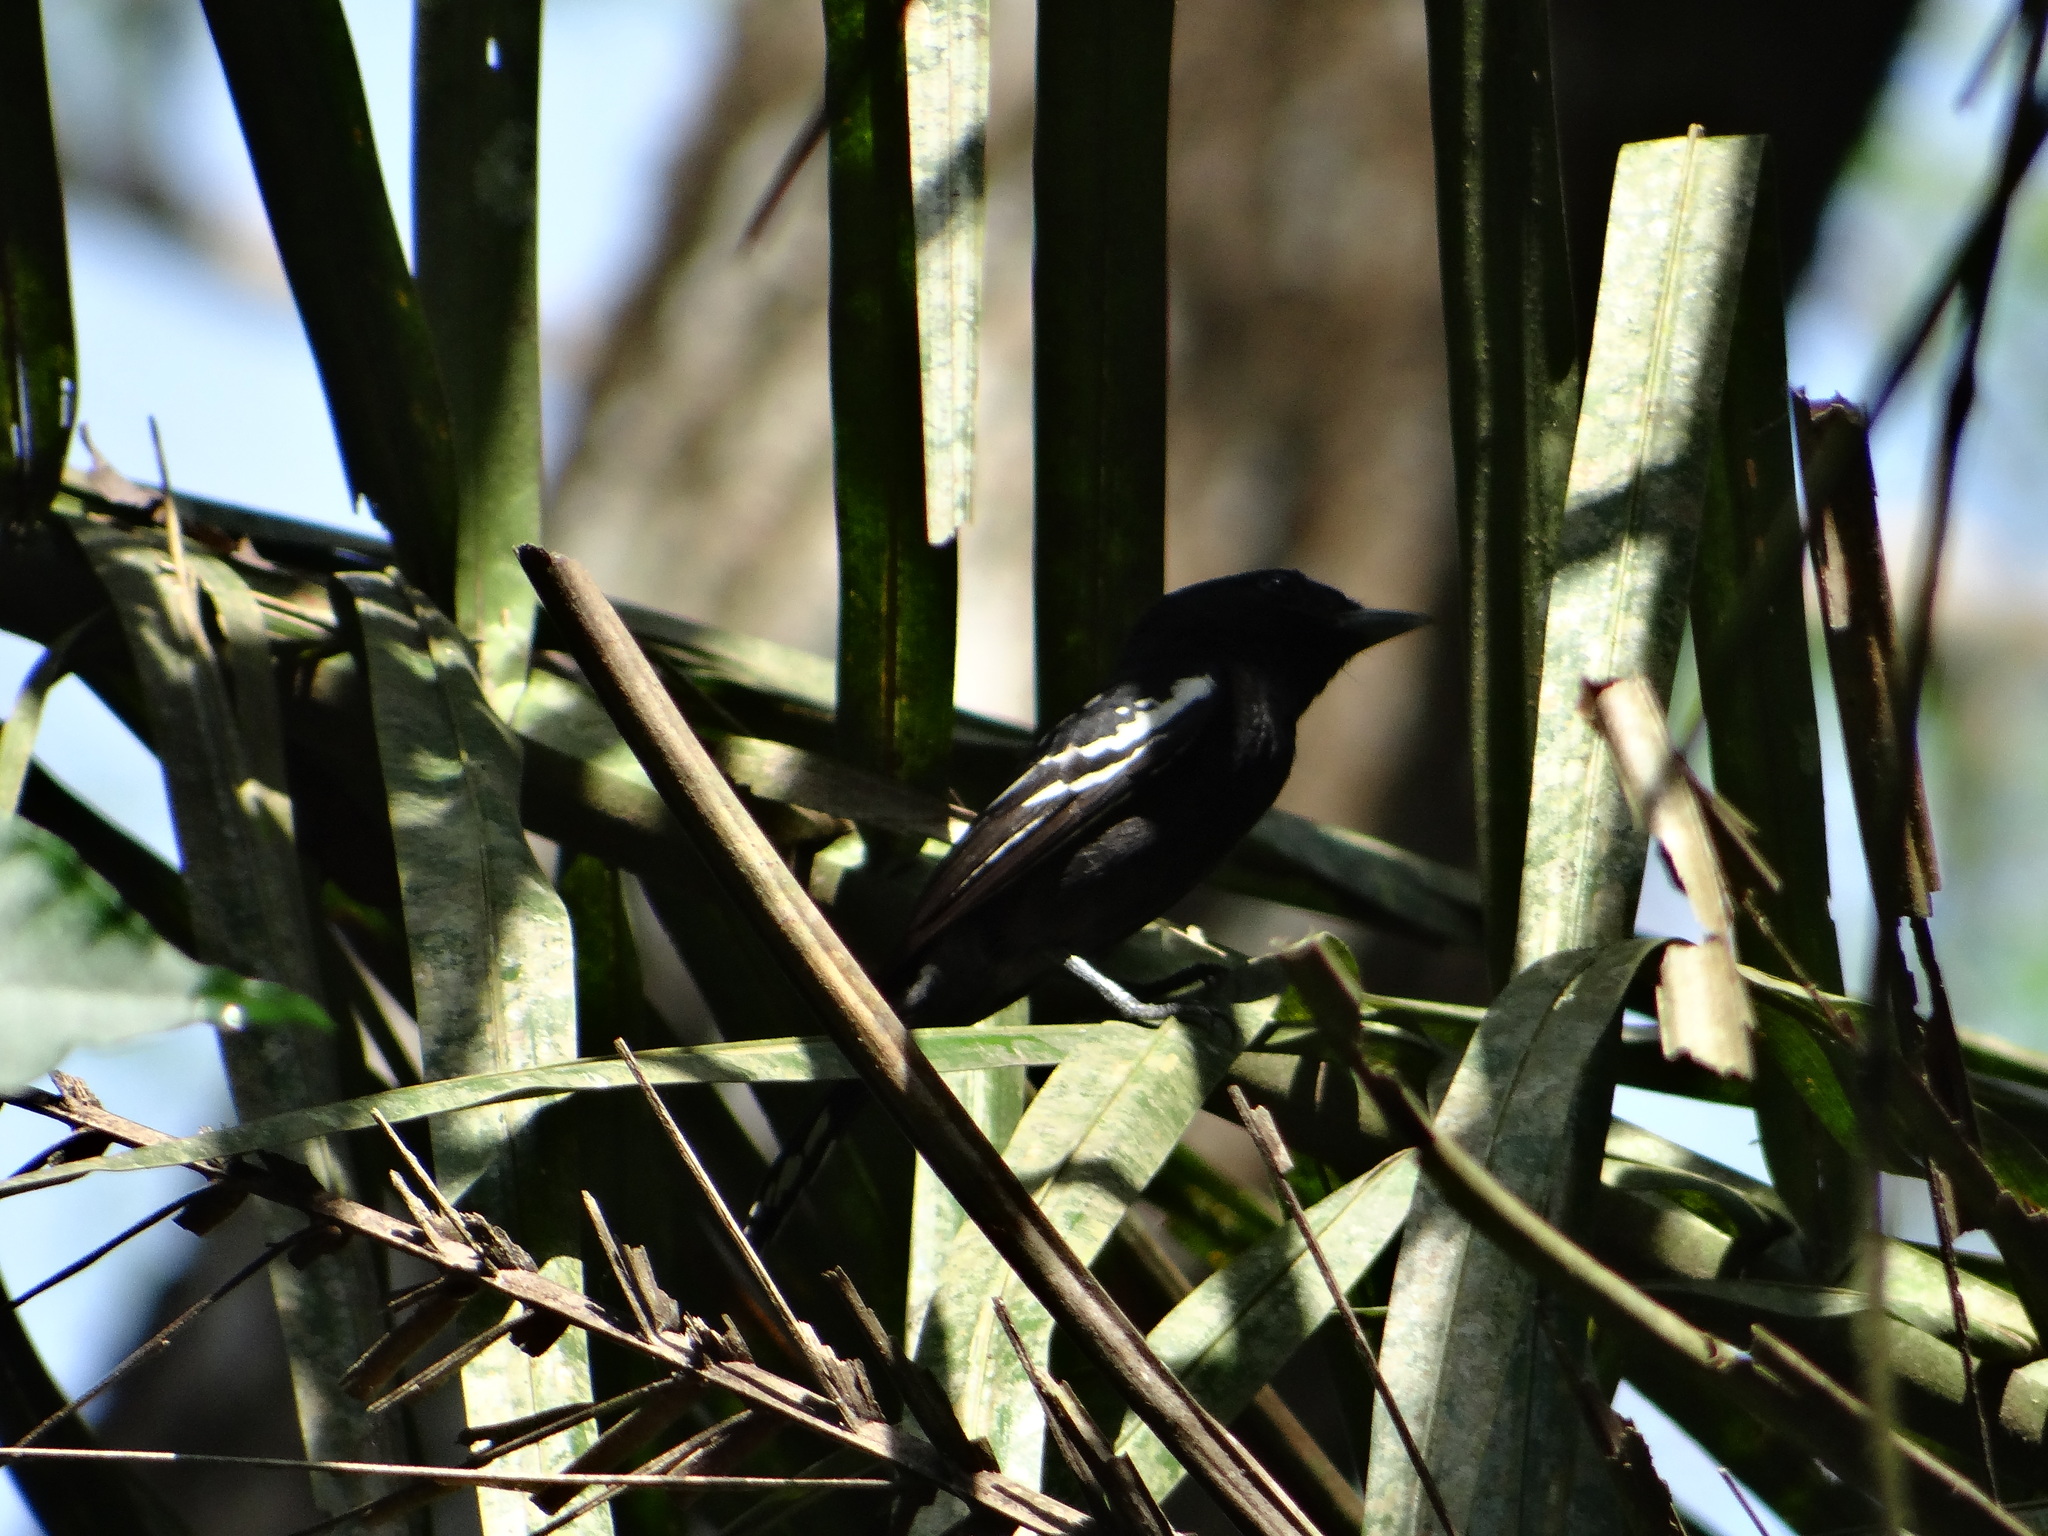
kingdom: Animalia
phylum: Chordata
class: Aves
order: Passeriformes
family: Cotingidae
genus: Pachyramphus
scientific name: Pachyramphus polychopterus
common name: White-winged becard
